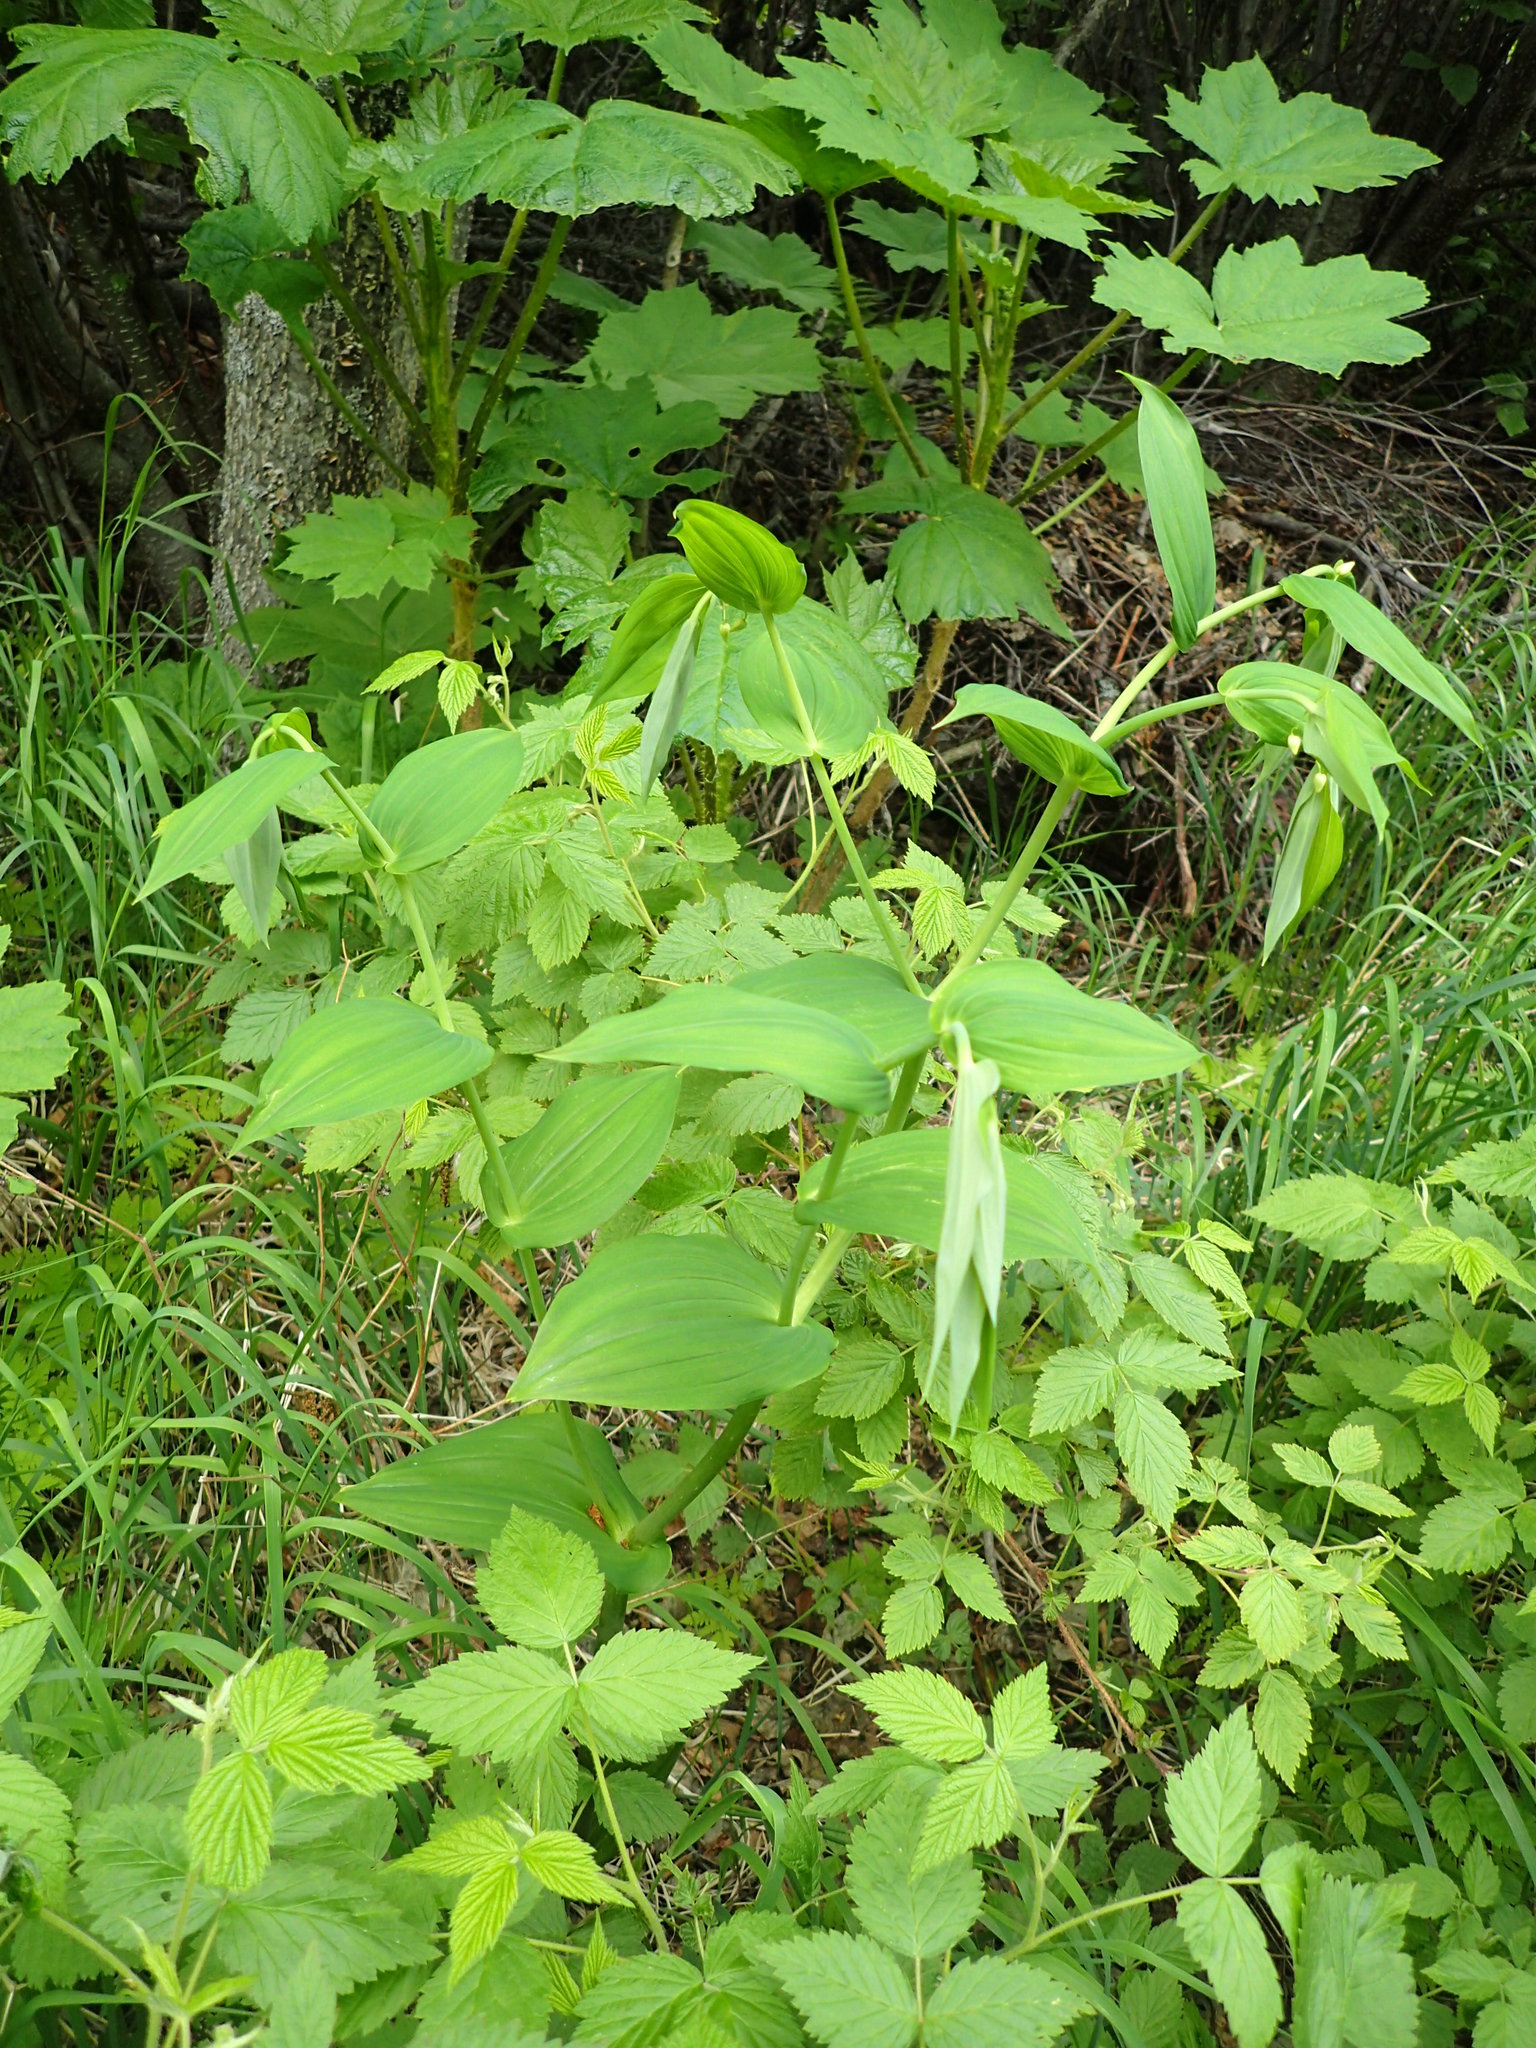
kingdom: Plantae
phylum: Tracheophyta
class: Liliopsida
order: Liliales
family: Liliaceae
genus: Streptopus
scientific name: Streptopus amplexifolius
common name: Clasp twisted stalk
